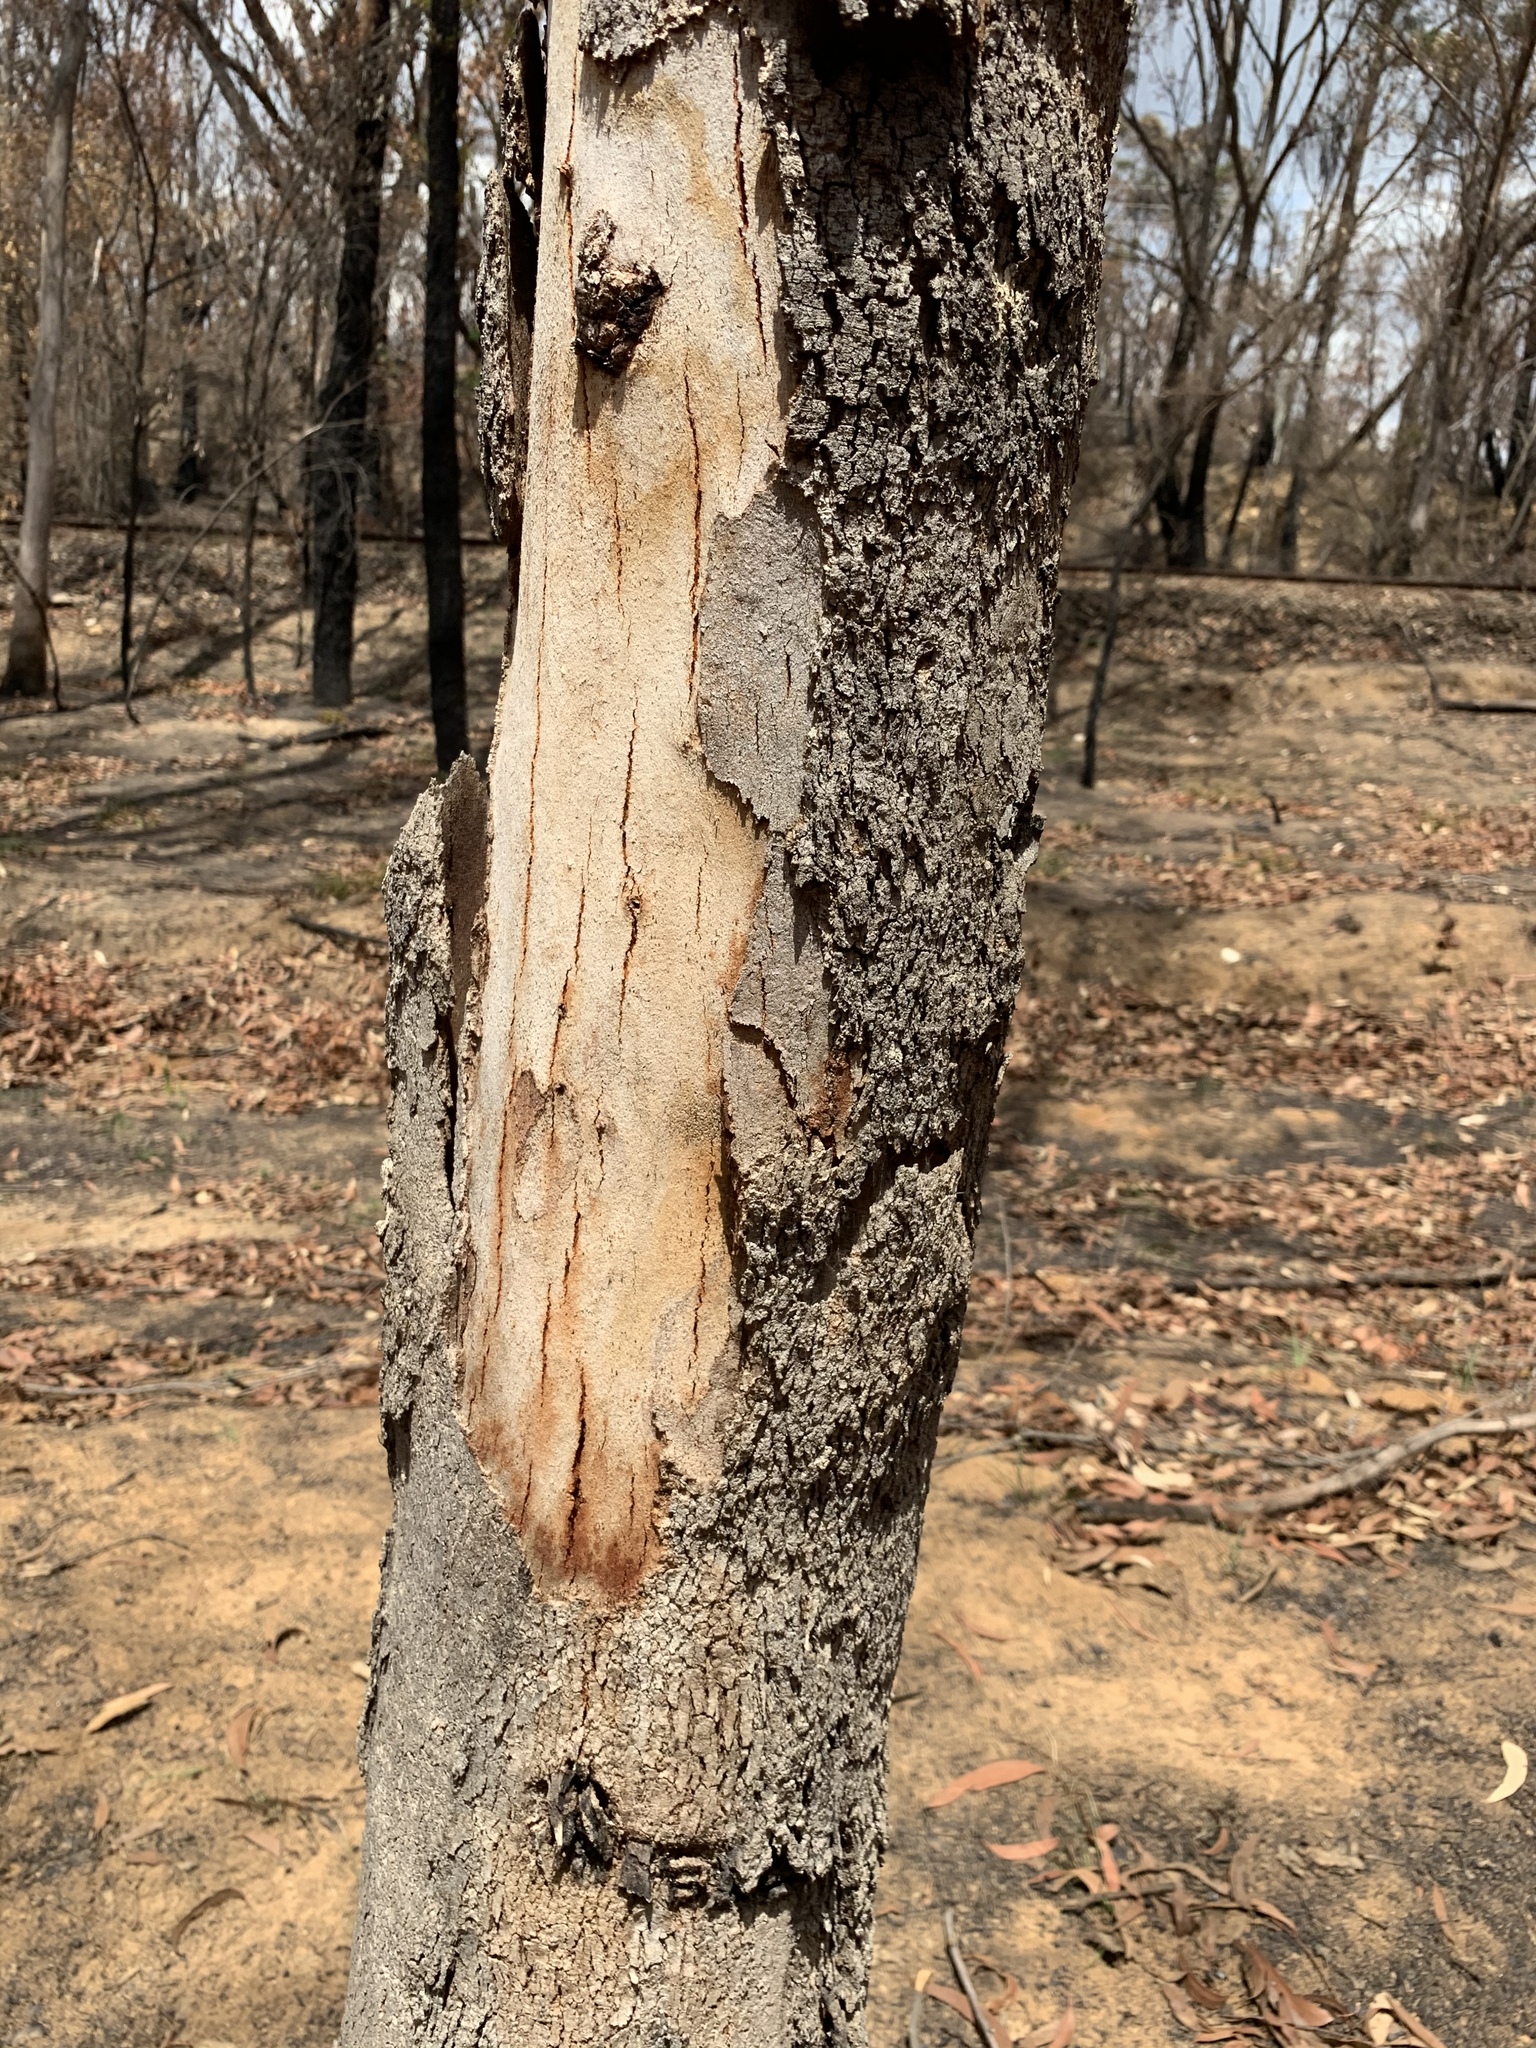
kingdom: Plantae
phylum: Tracheophyta
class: Magnoliopsida
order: Myrtales
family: Myrtaceae
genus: Eucalyptus
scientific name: Eucalyptus punctata
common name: Gray gum
